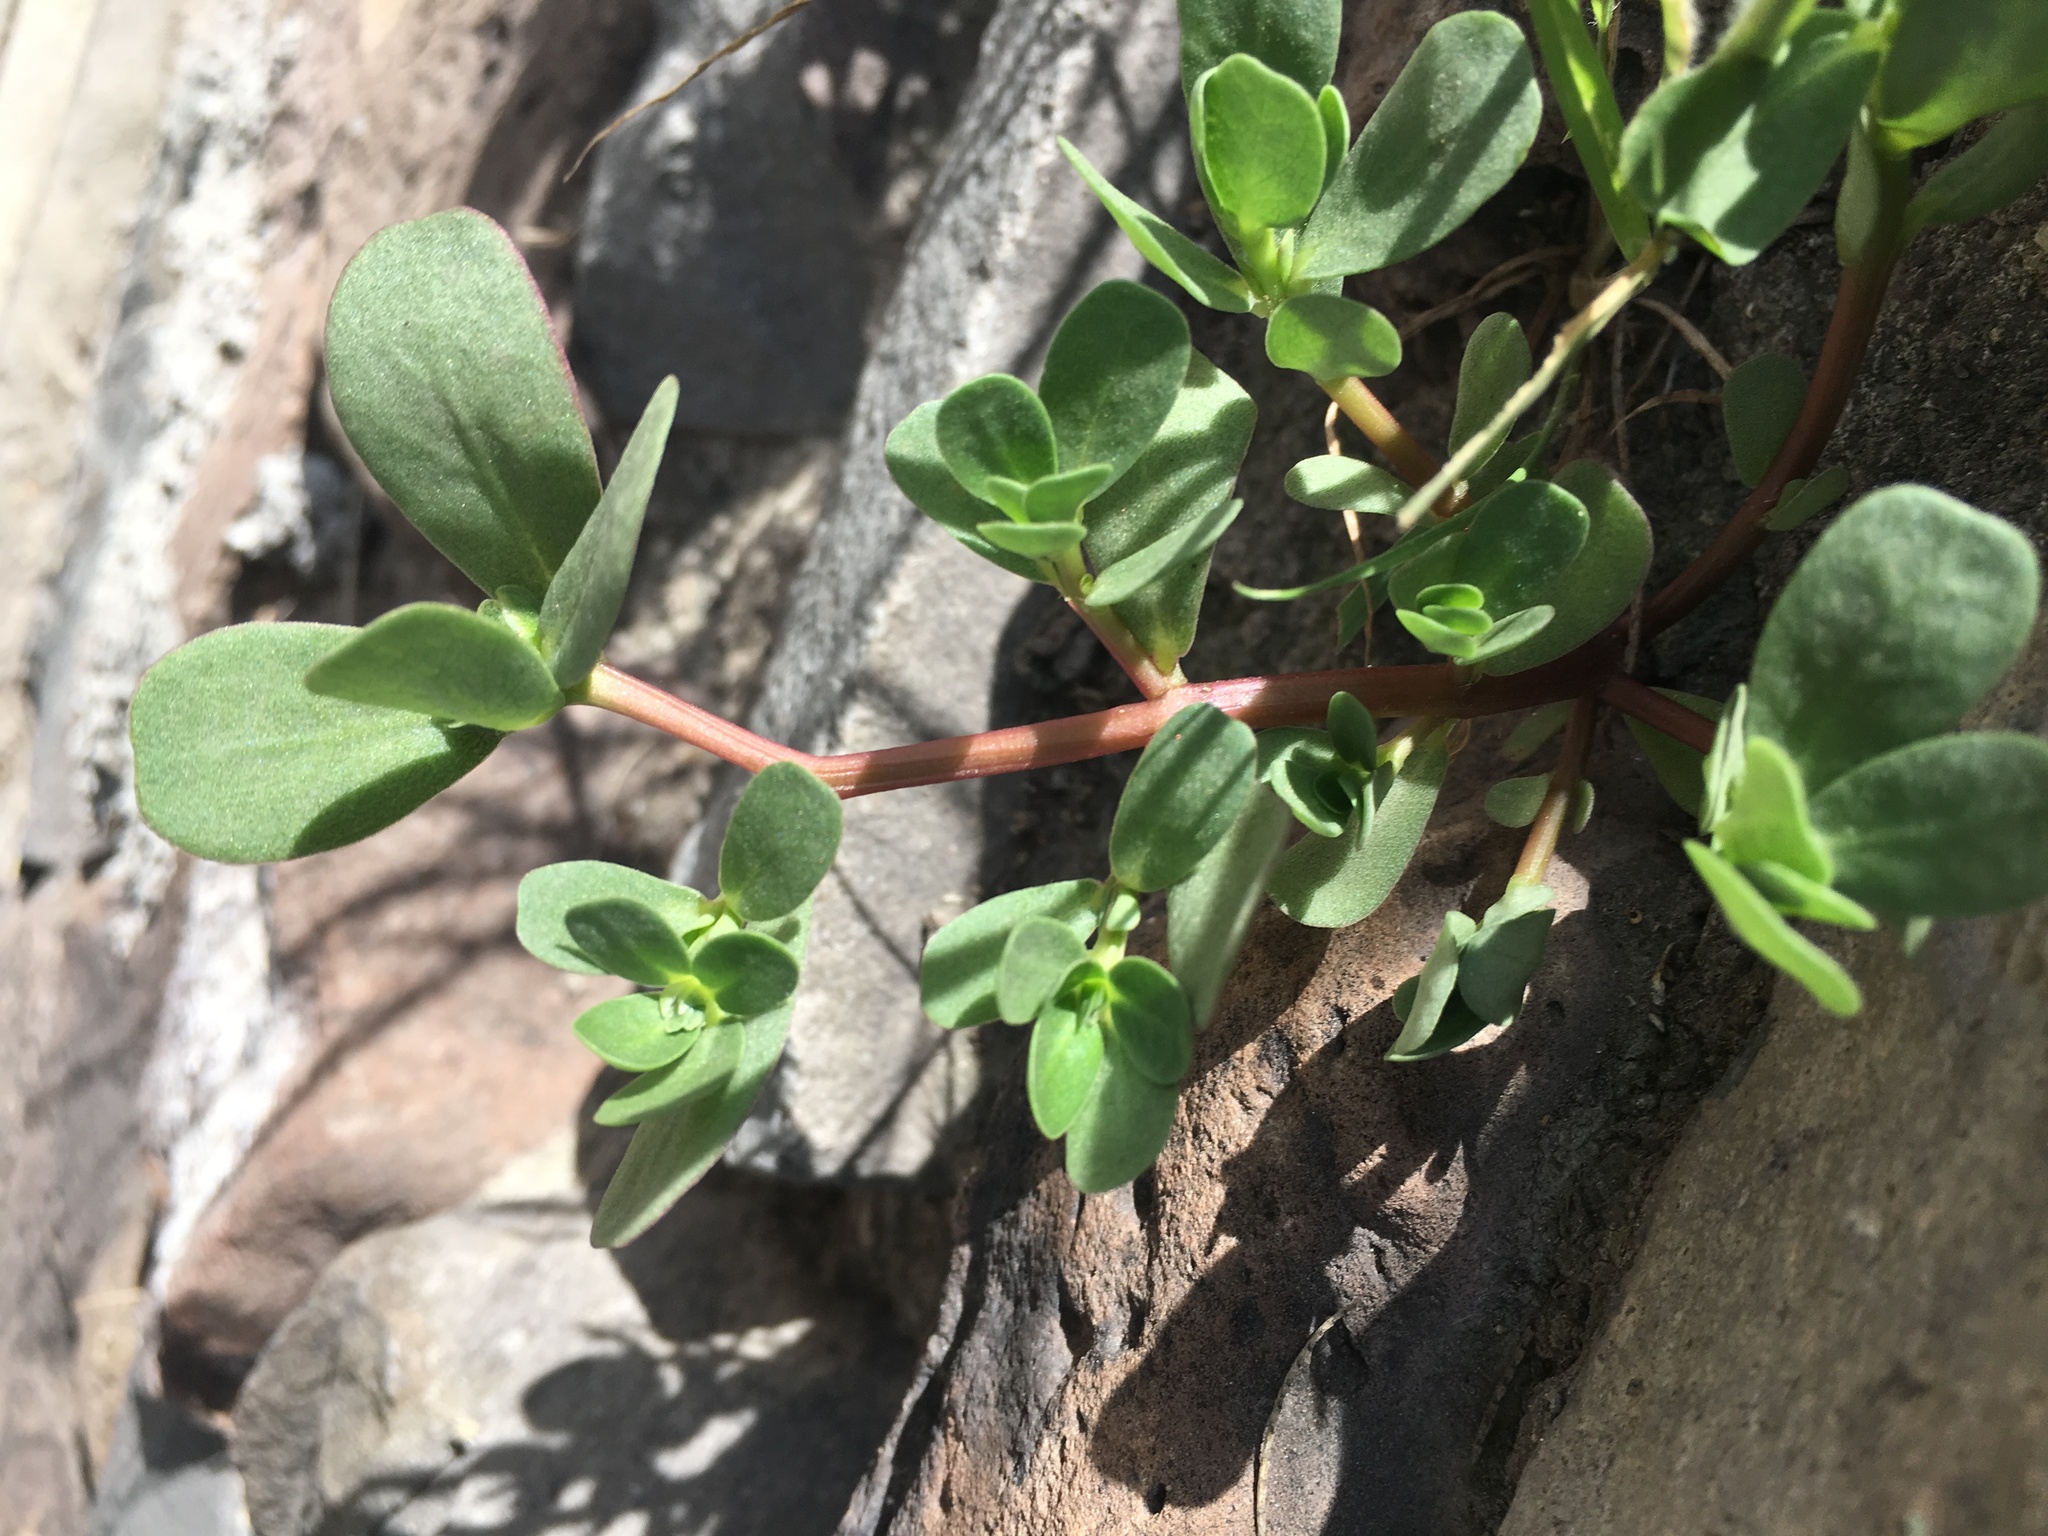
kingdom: Plantae
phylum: Tracheophyta
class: Magnoliopsida
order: Caryophyllales
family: Portulacaceae
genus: Portulaca
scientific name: Portulaca oleracea
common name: Common purslane
